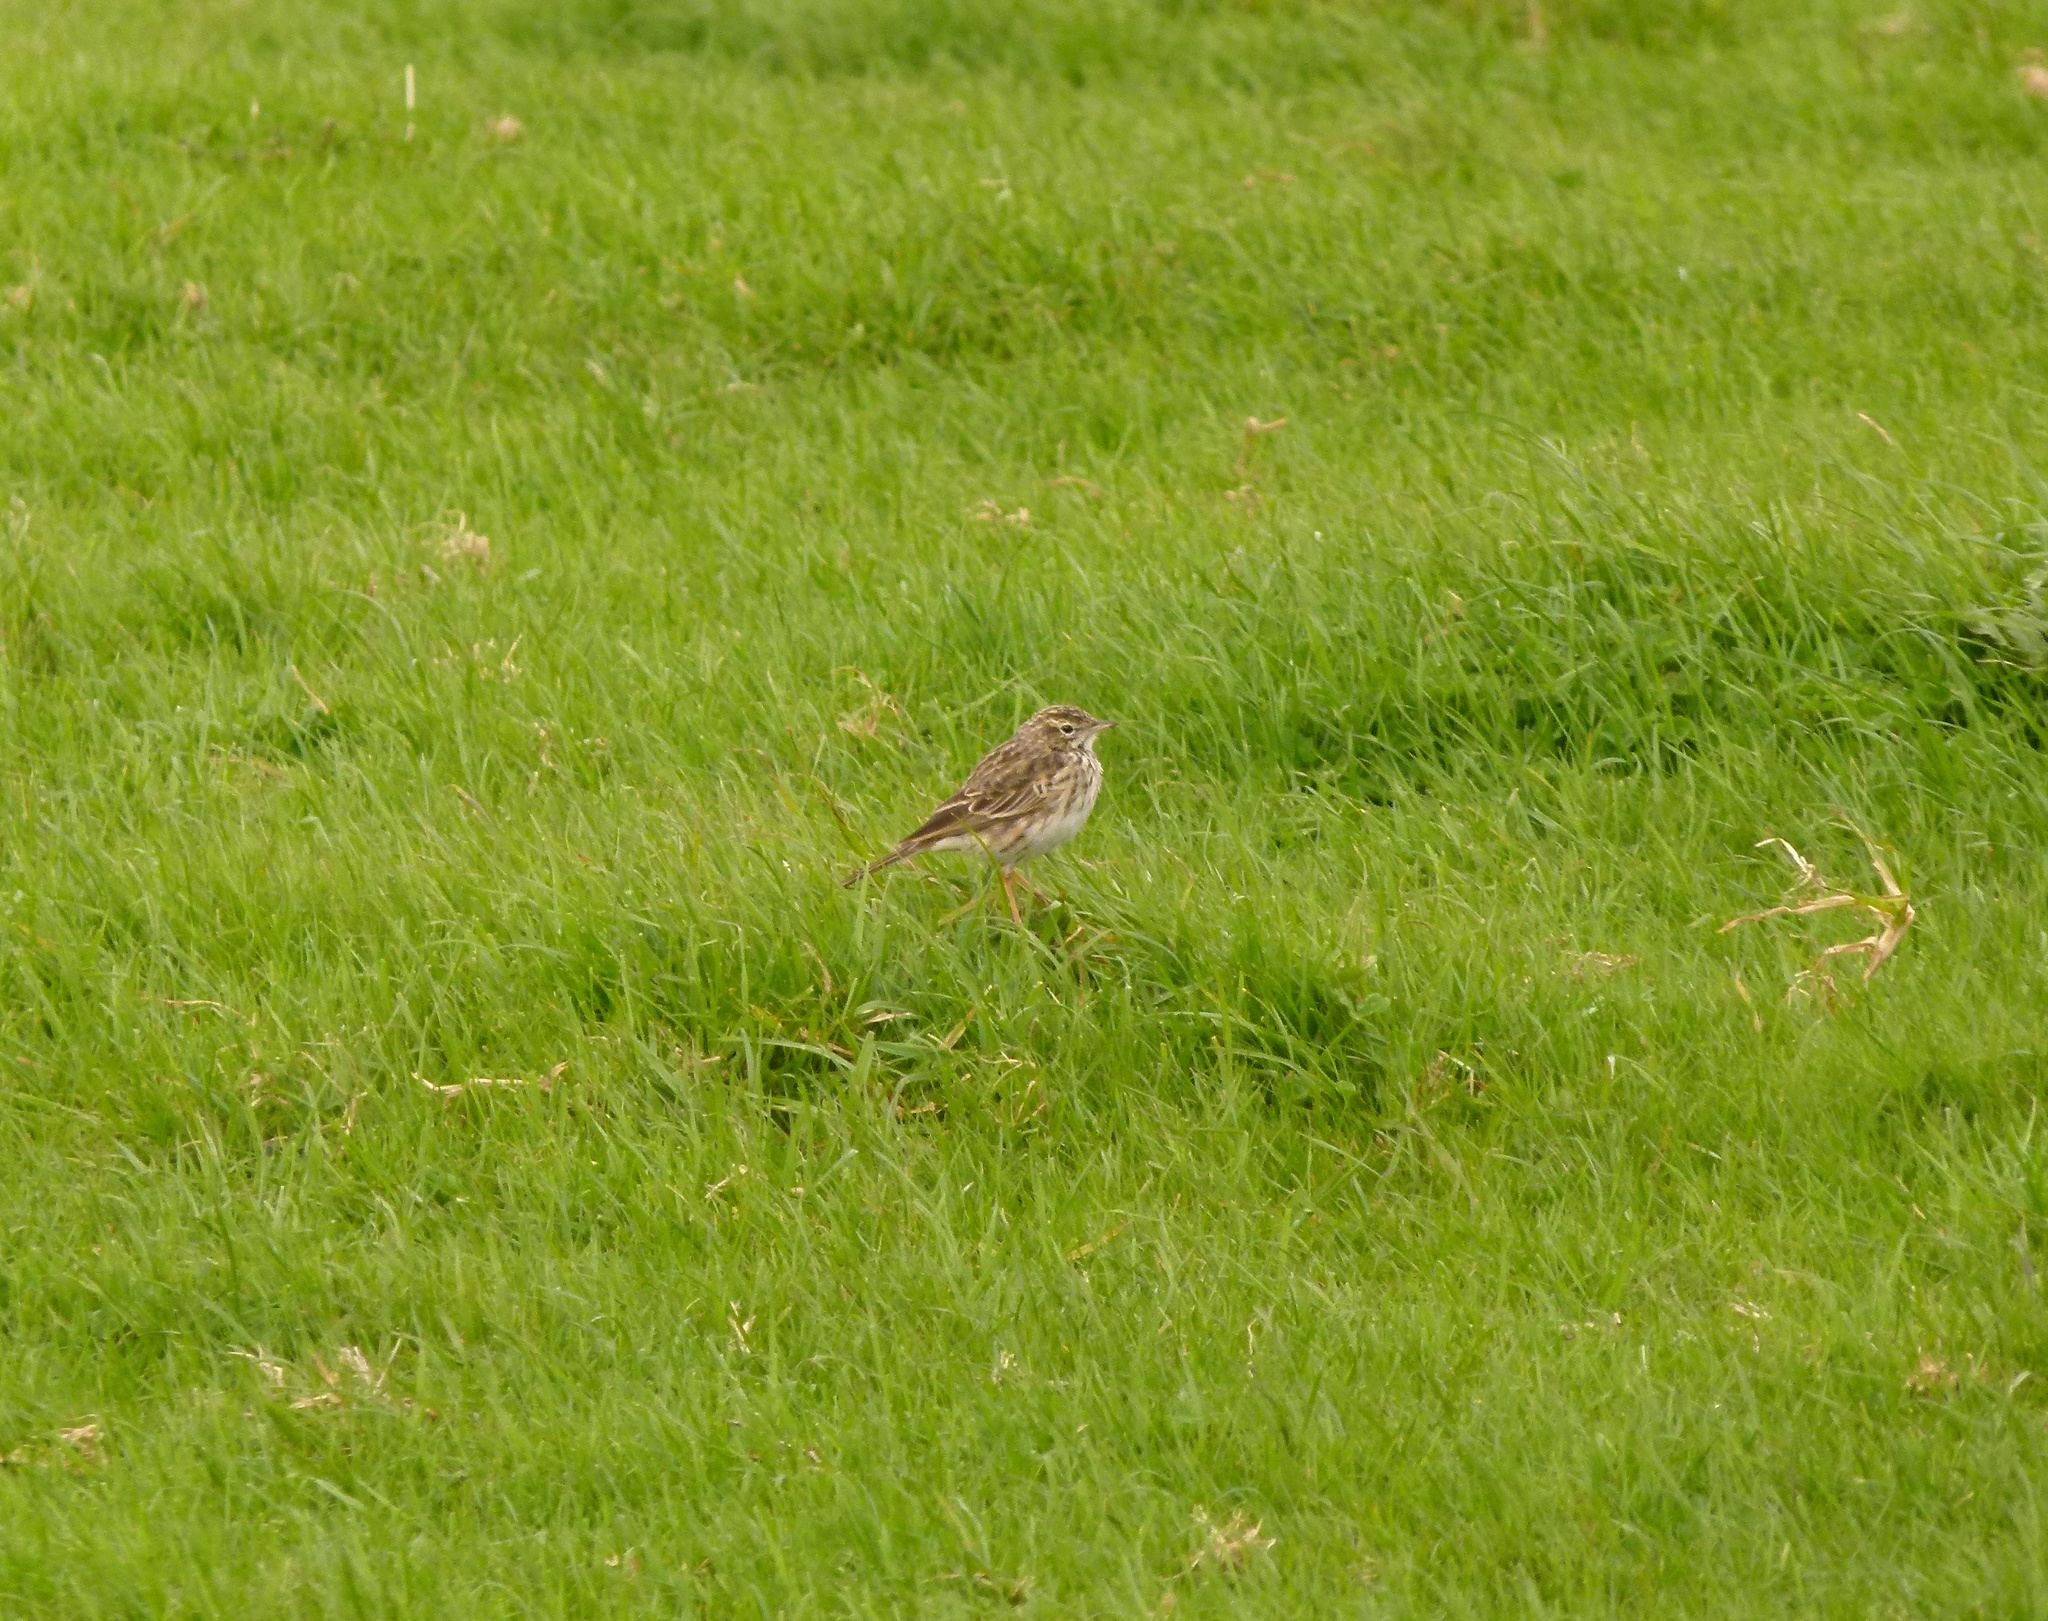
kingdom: Animalia
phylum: Chordata
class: Aves
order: Passeriformes
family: Motacillidae
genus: Anthus
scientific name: Anthus australis
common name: Australian pipit
